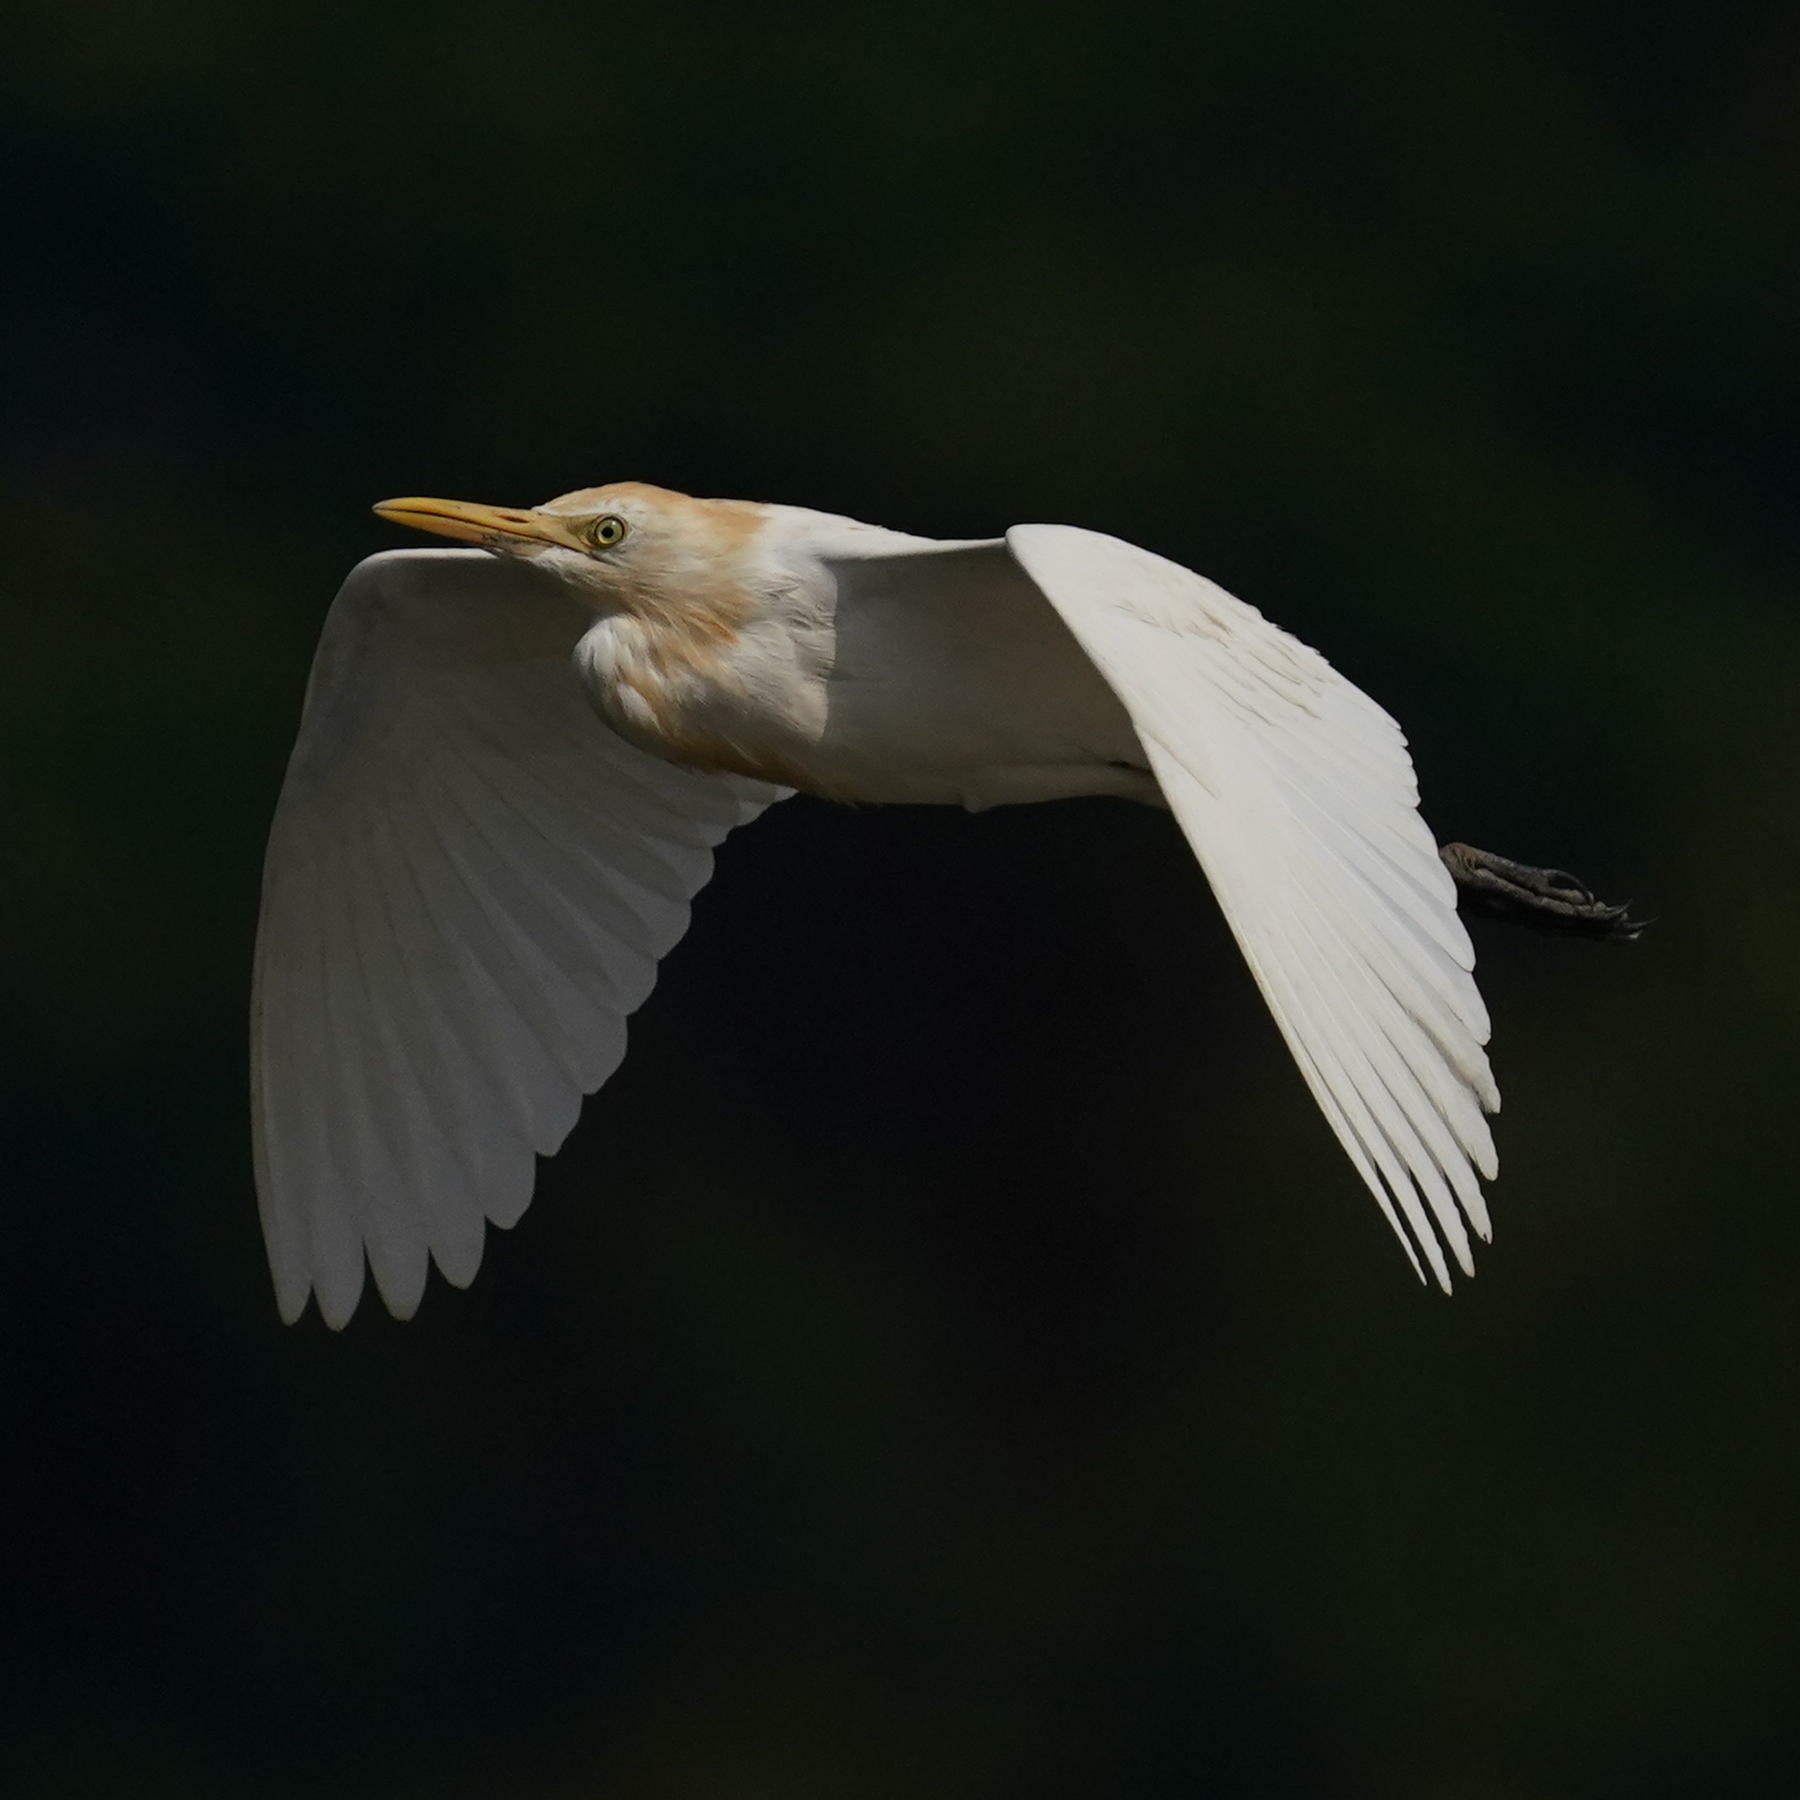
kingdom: Animalia
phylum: Chordata
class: Aves
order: Pelecaniformes
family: Ardeidae
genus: Bubulcus
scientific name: Bubulcus coromandus
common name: Eastern cattle egret
